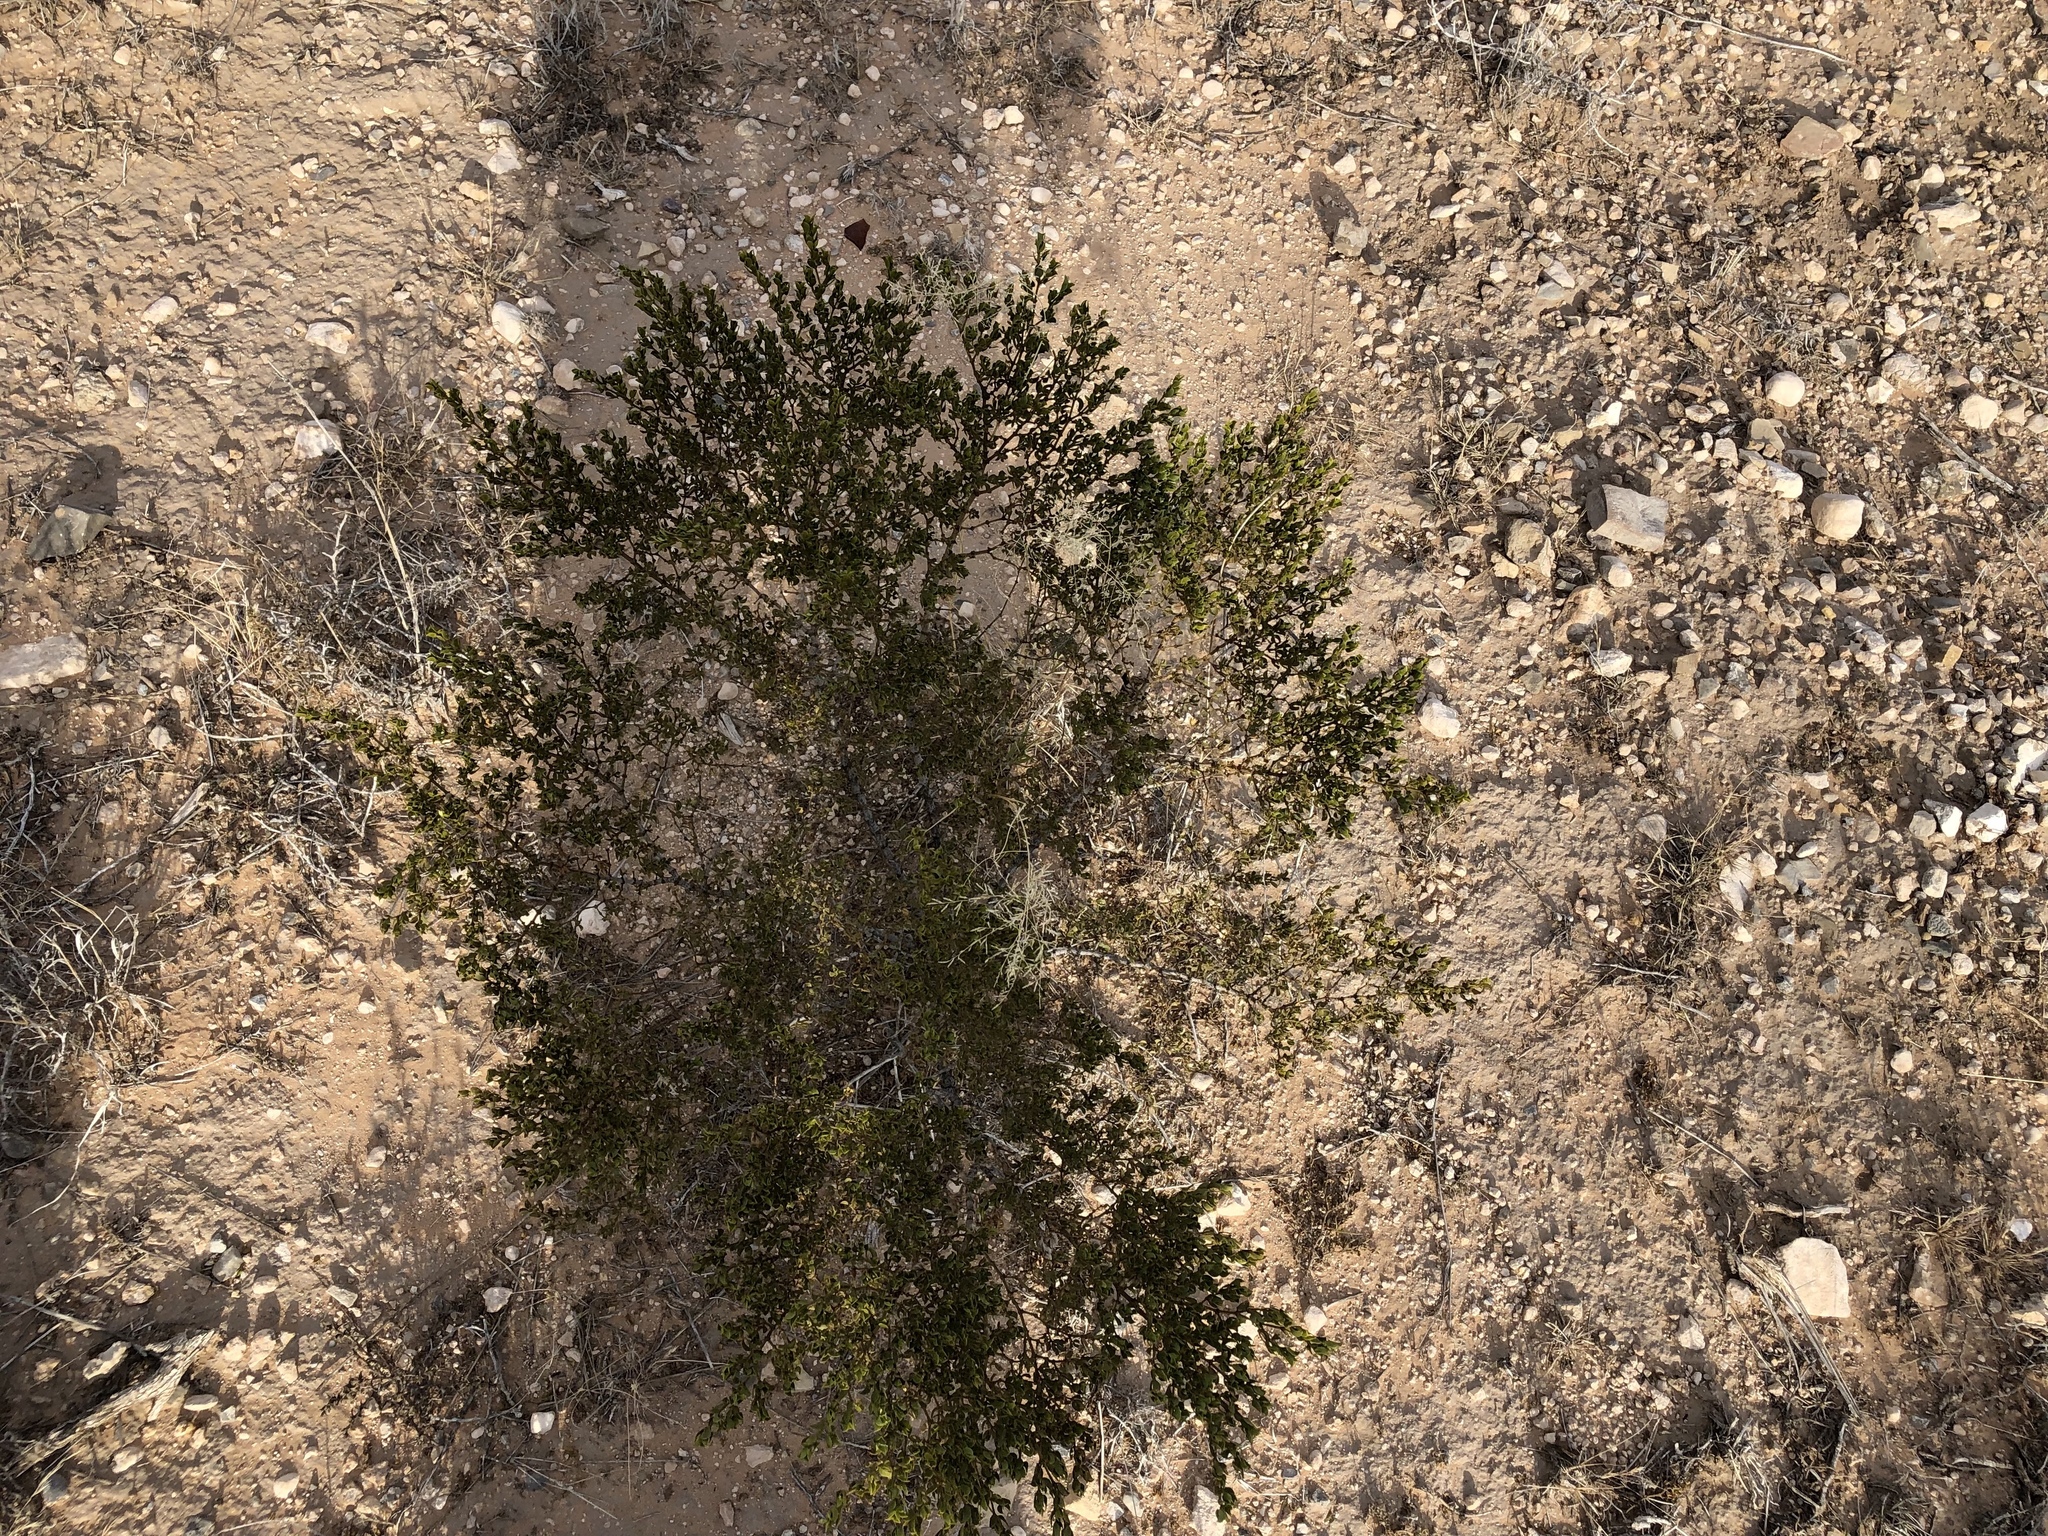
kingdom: Plantae
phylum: Tracheophyta
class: Magnoliopsida
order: Zygophyllales
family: Zygophyllaceae
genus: Larrea
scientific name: Larrea tridentata
